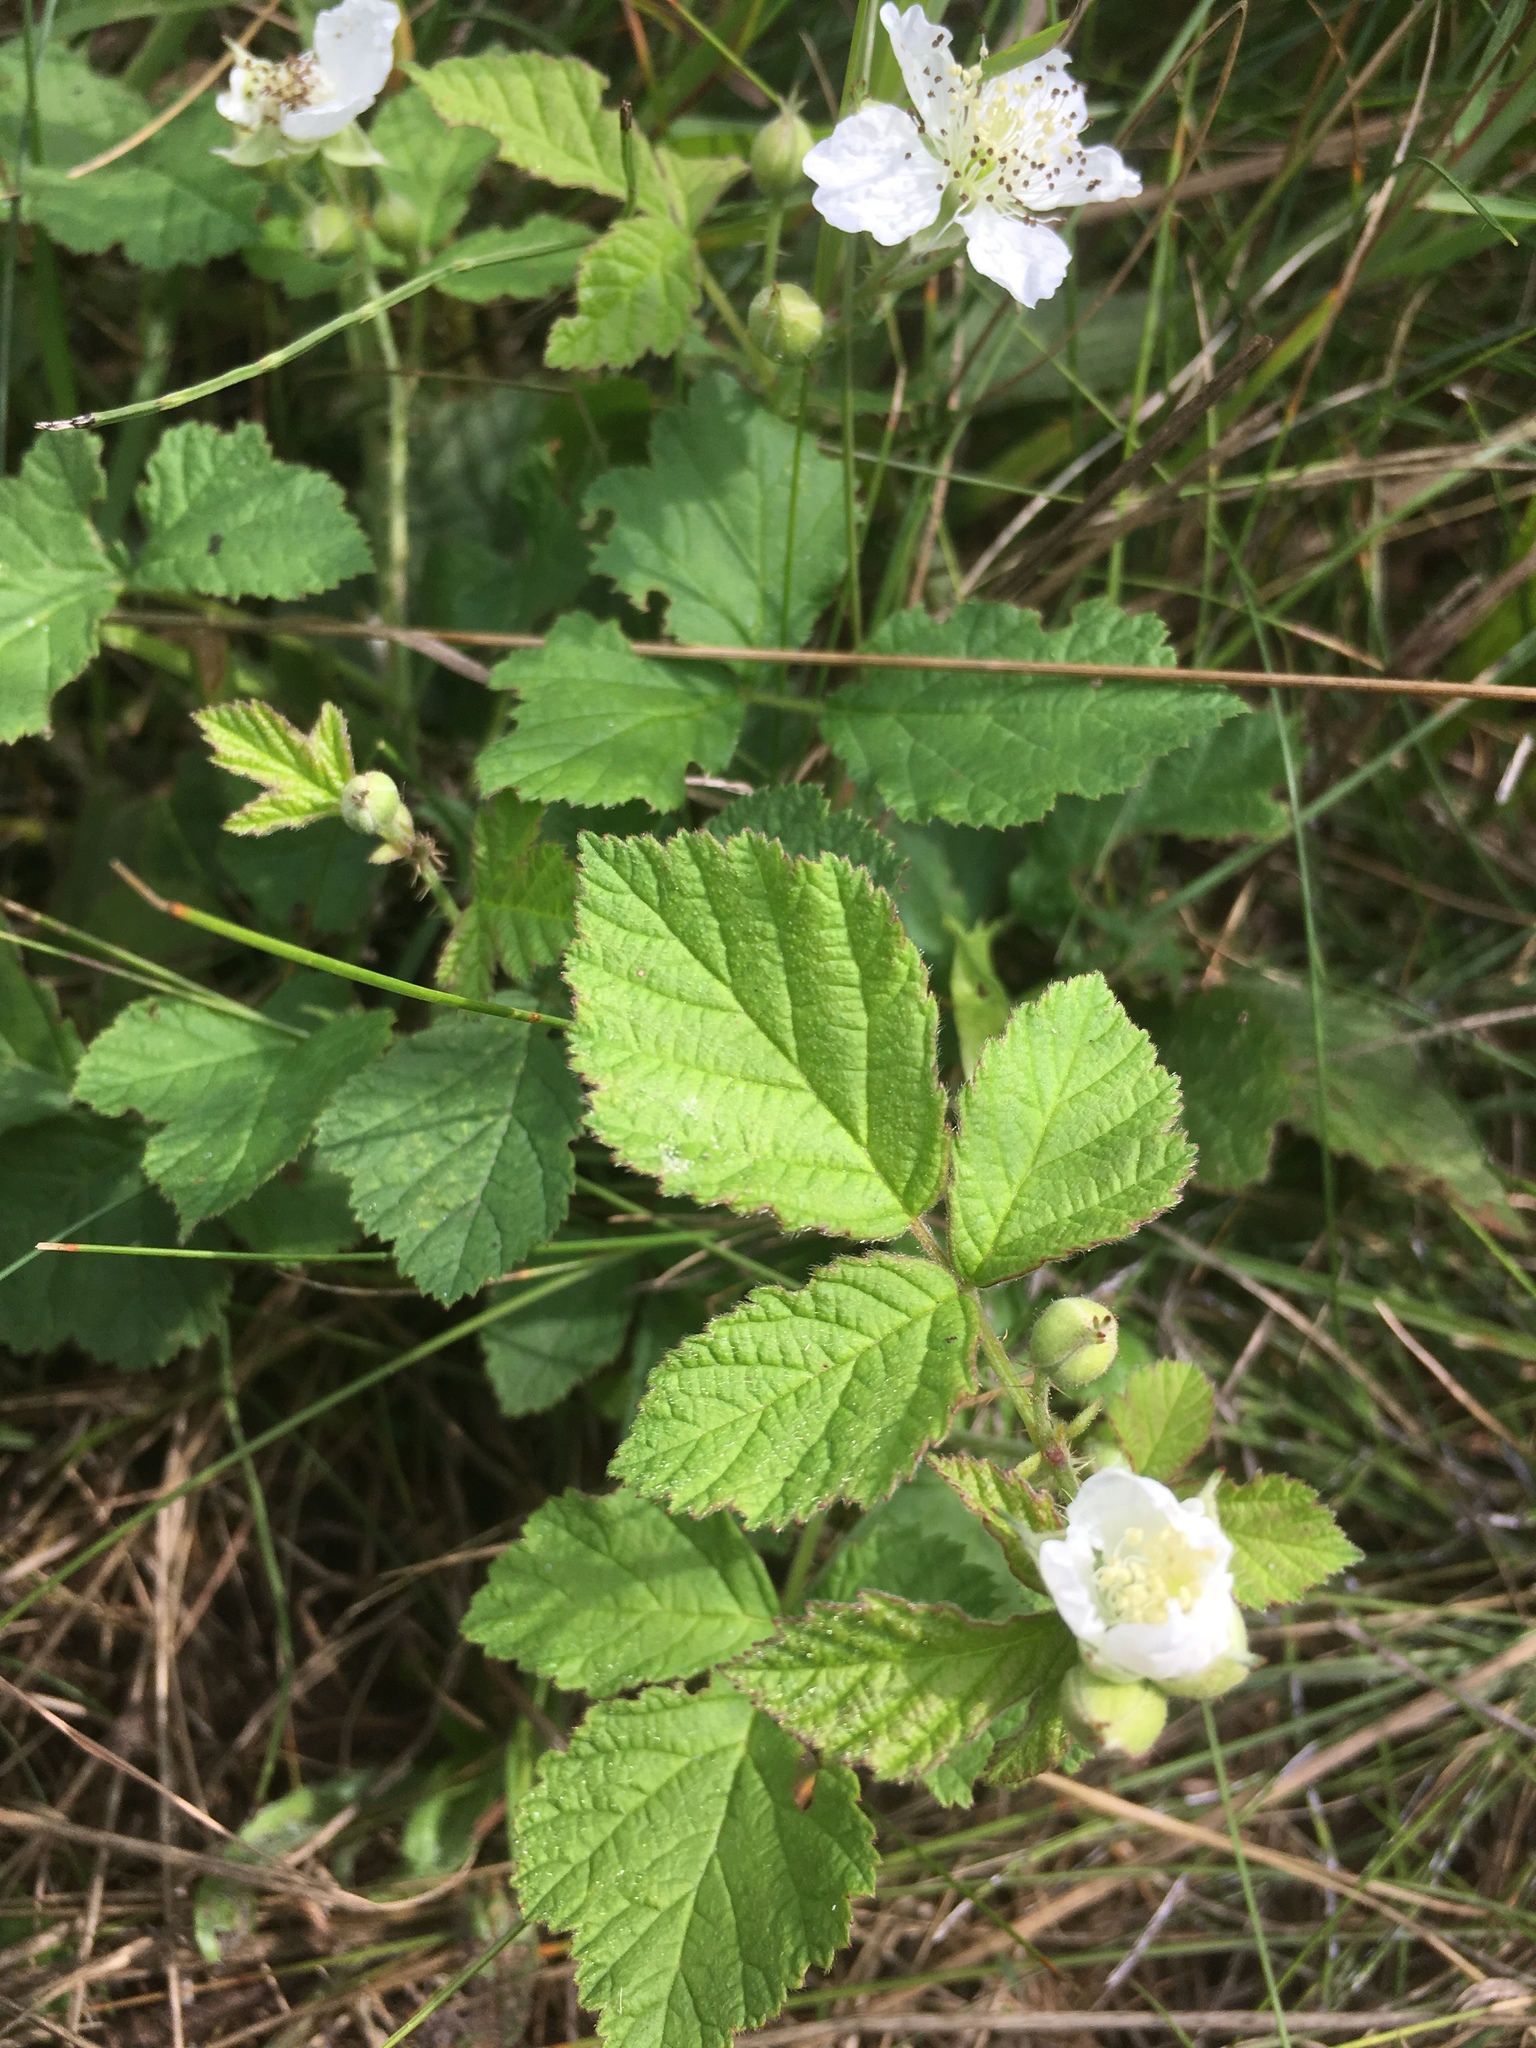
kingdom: Plantae
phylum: Tracheophyta
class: Magnoliopsida
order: Rosales
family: Rosaceae
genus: Rubus
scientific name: Rubus caesius
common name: Dewberry
